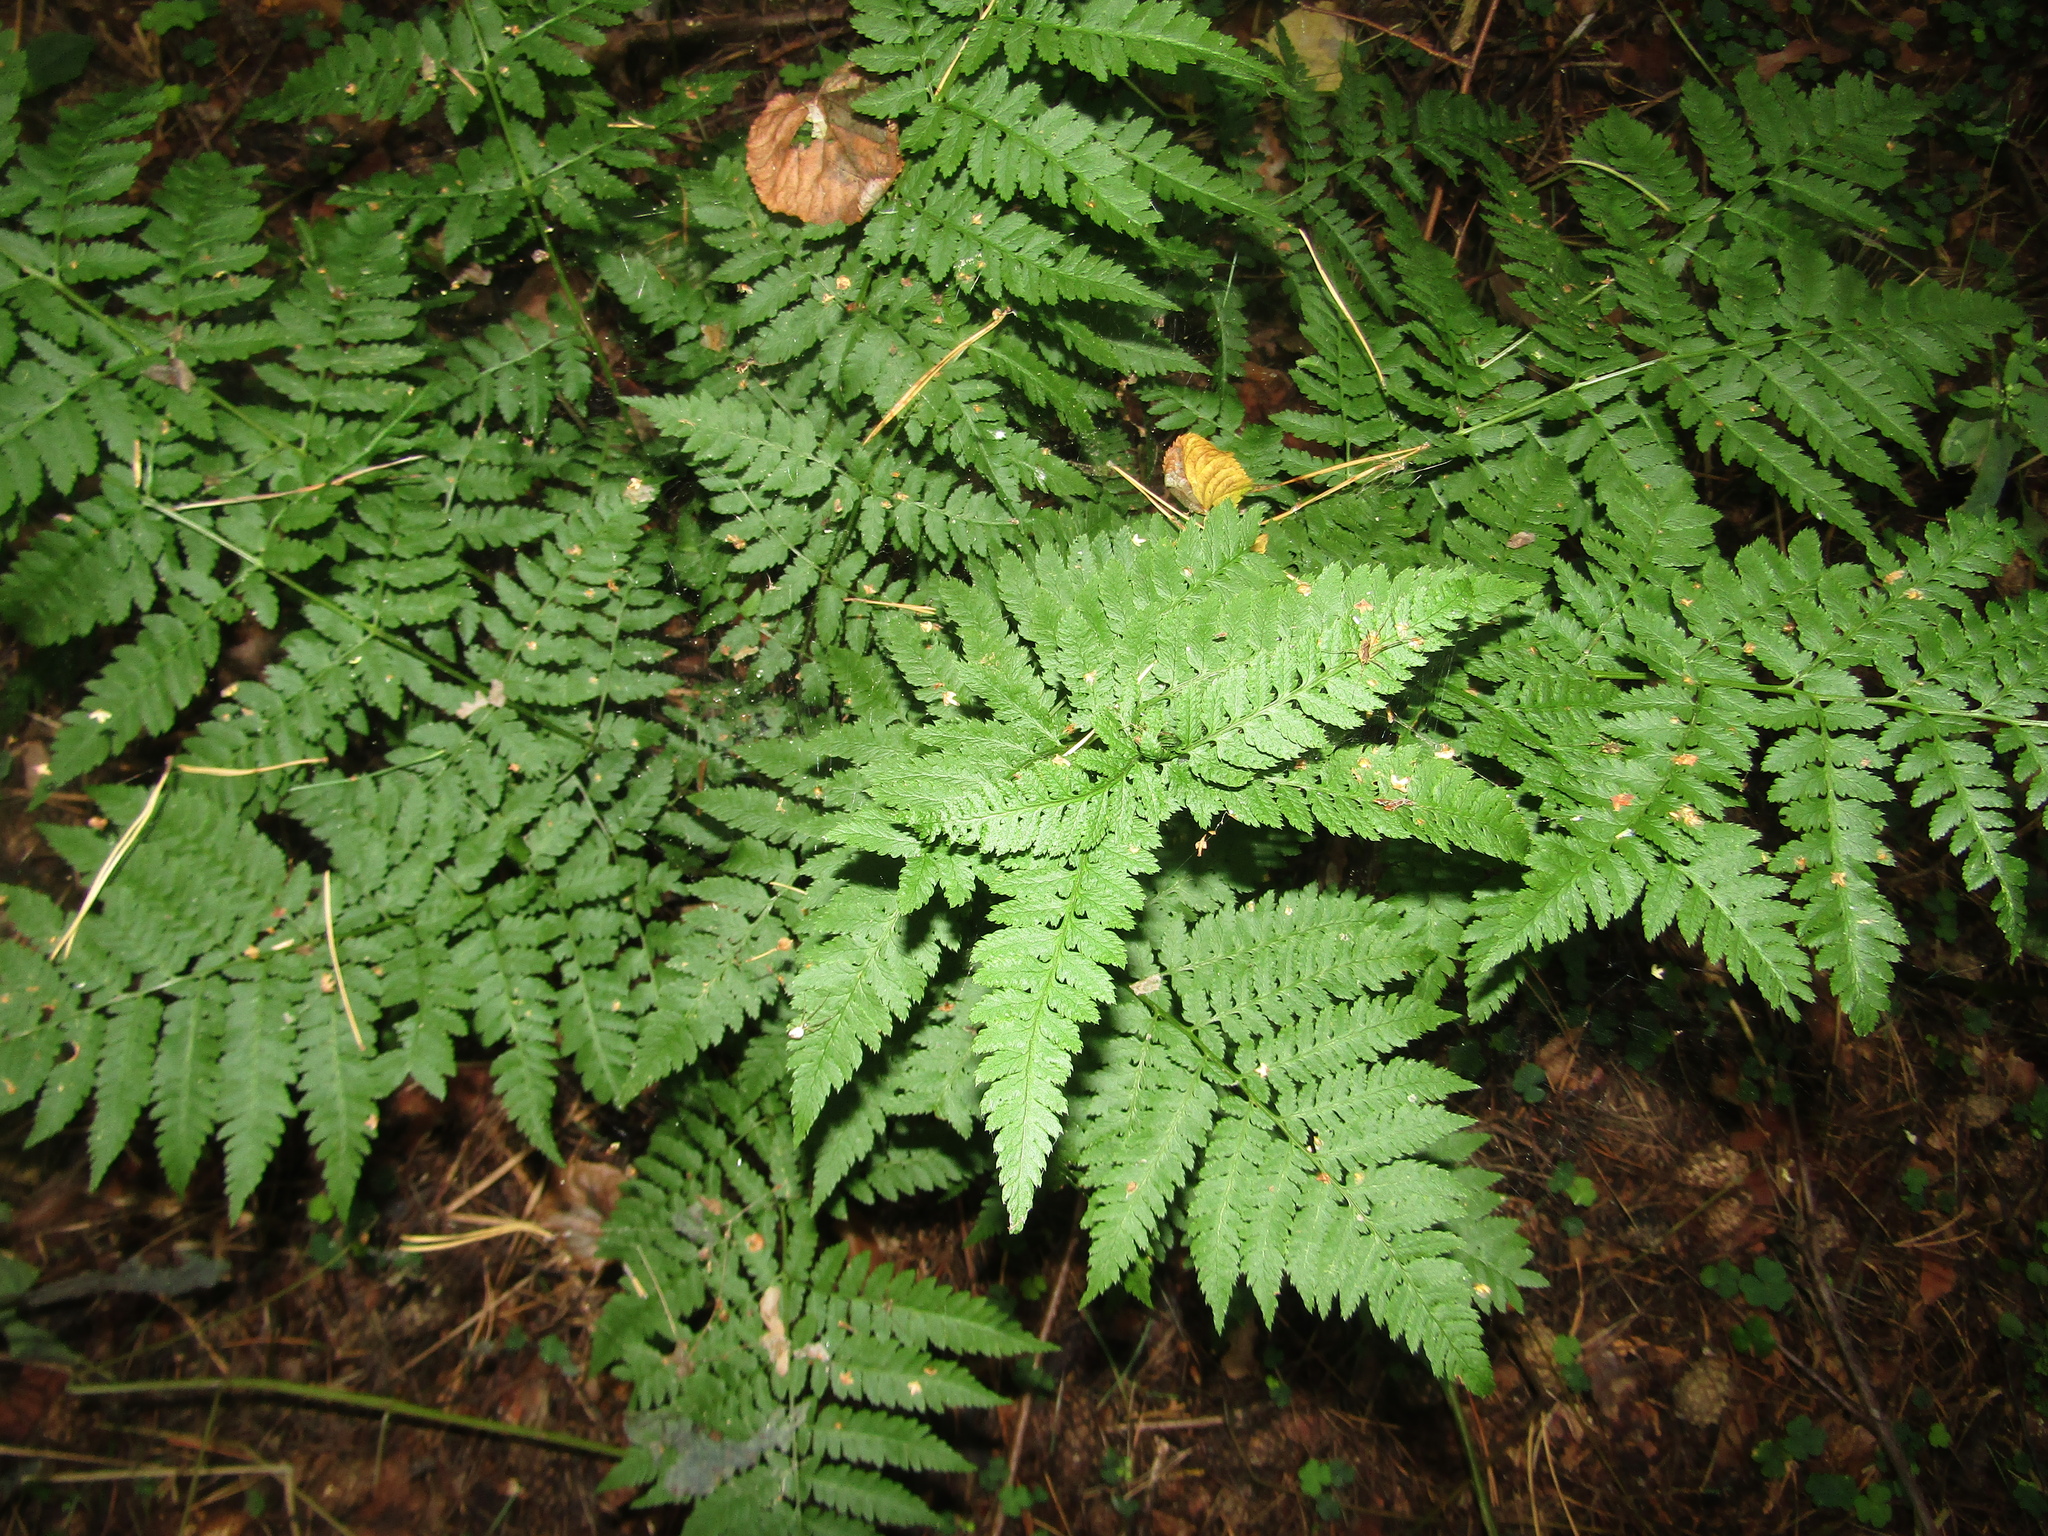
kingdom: Plantae
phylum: Tracheophyta
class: Polypodiopsida
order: Polypodiales
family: Dryopteridaceae
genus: Dryopteris
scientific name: Dryopteris carthusiana
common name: Narrow buckler-fern
